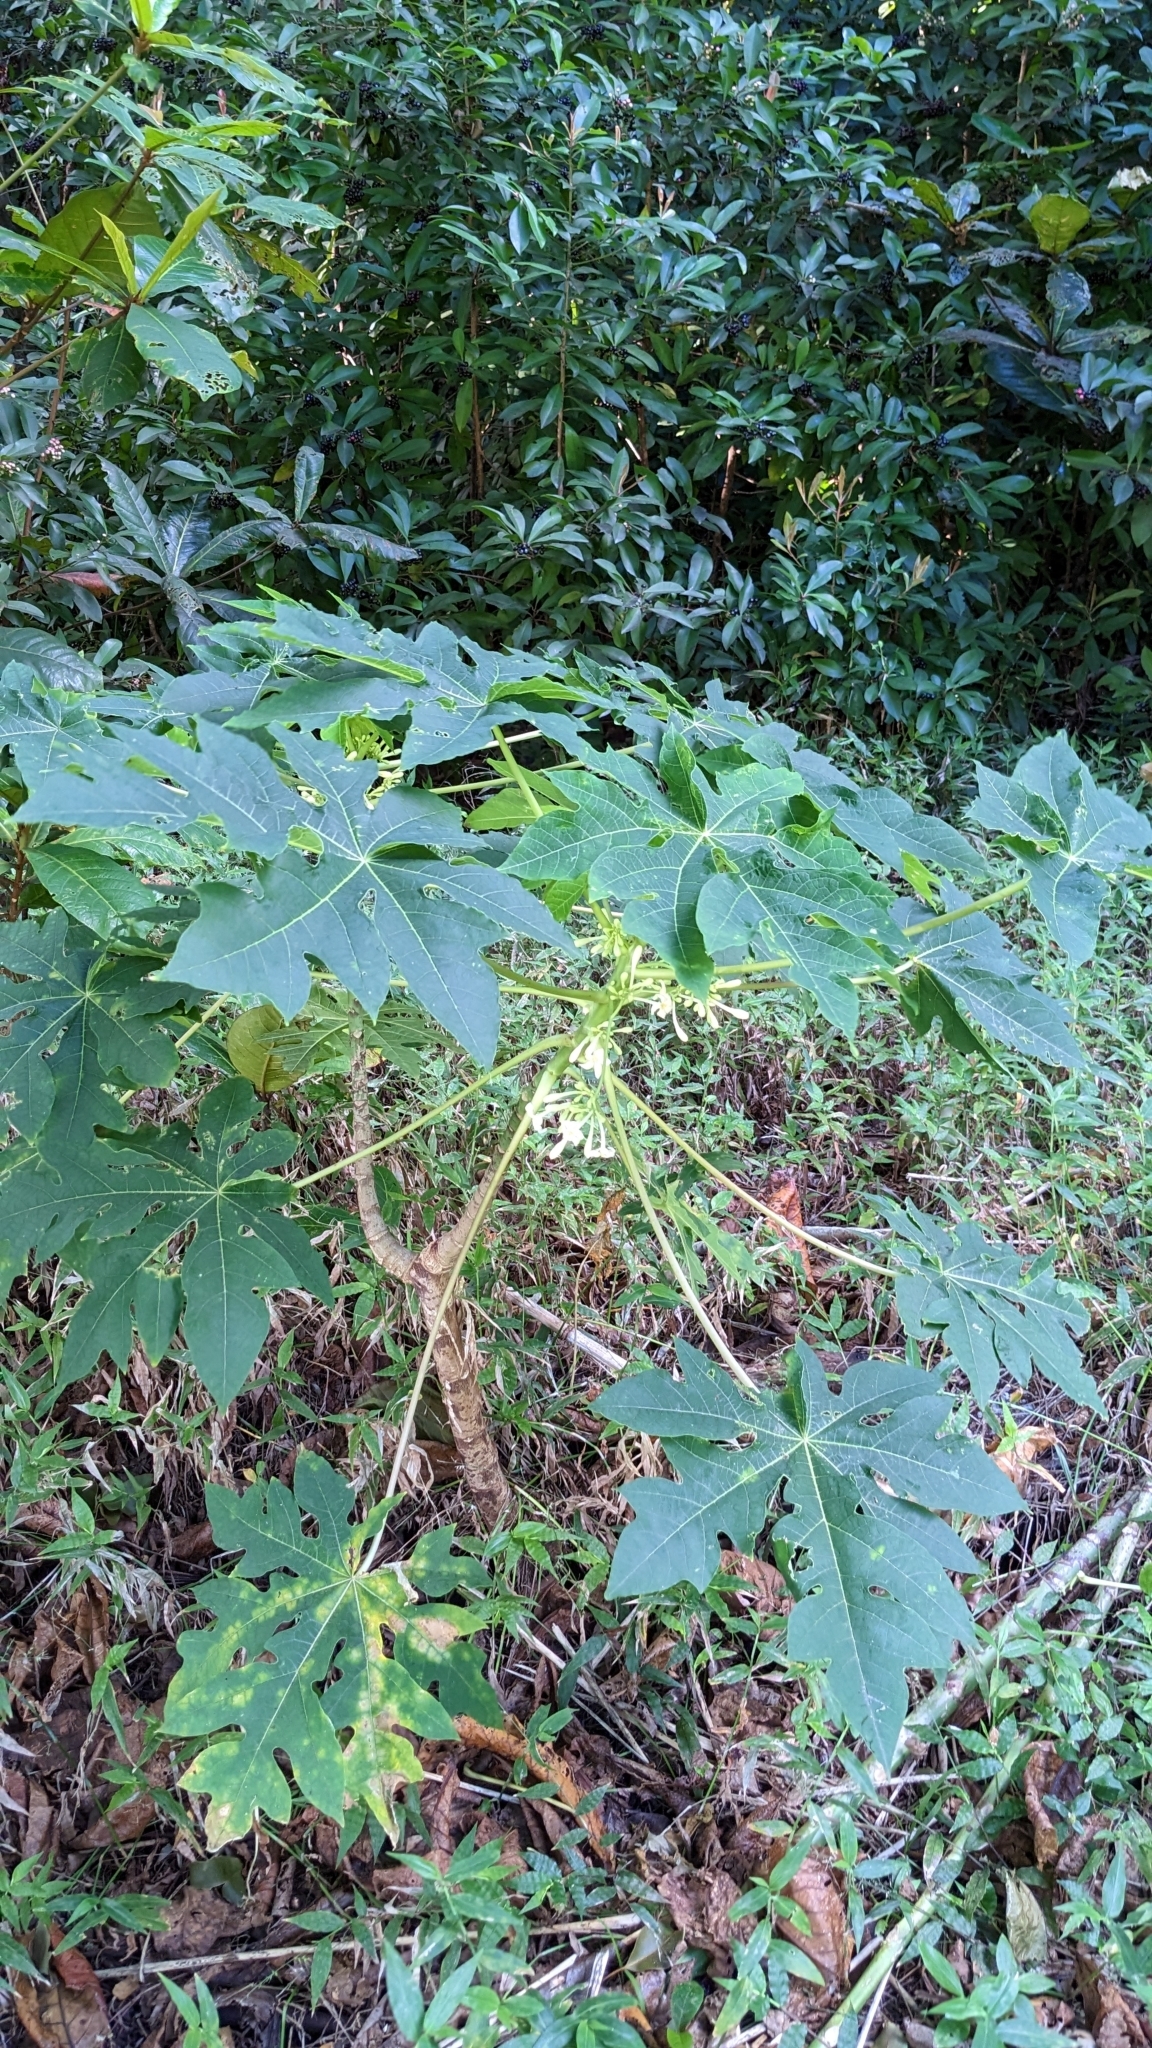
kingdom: Plantae
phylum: Tracheophyta
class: Magnoliopsida
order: Brassicales
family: Caricaceae
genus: Carica
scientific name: Carica papaya
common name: Papaya
